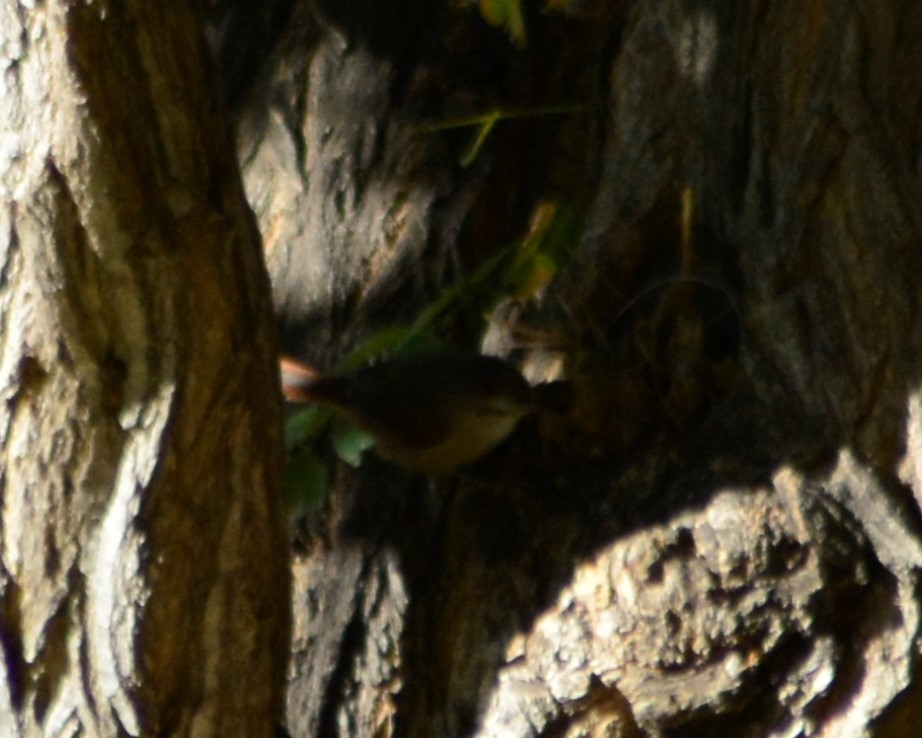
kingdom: Animalia
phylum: Chordata
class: Aves
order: Passeriformes
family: Furnariidae
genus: Cranioleuca
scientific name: Cranioleuca pyrrhophia
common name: Stripe-crowned spinetail
